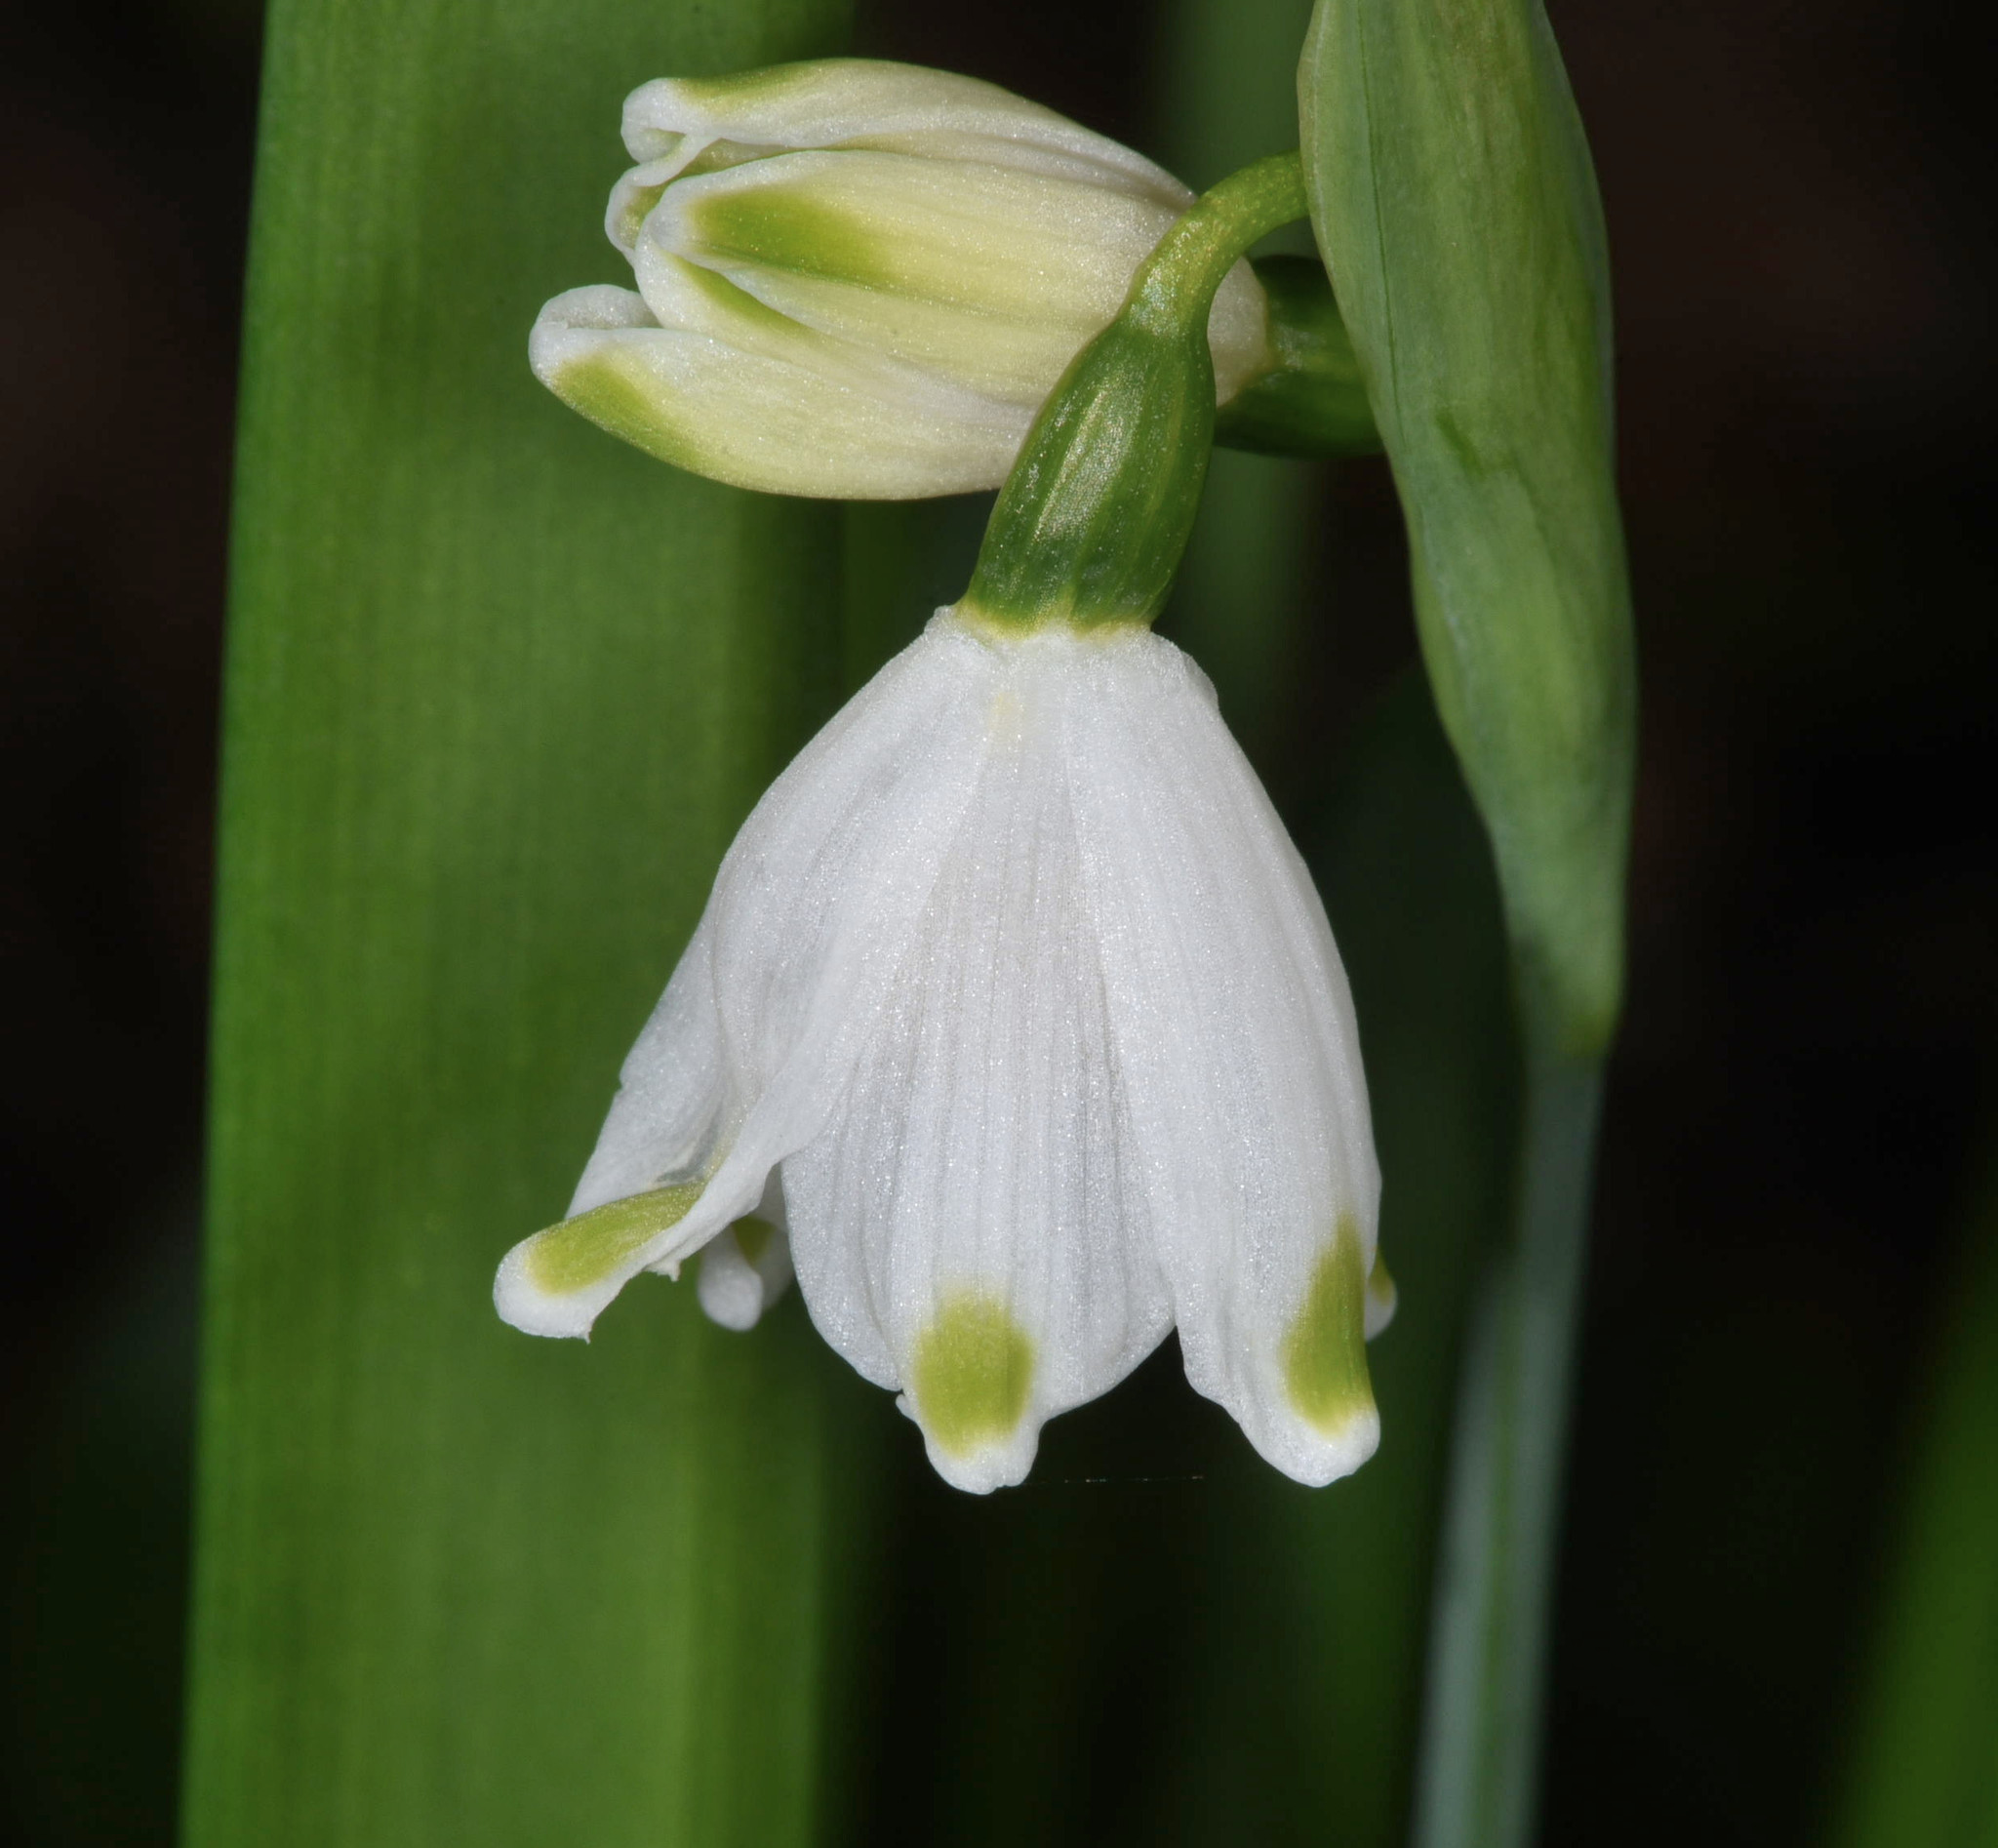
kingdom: Plantae
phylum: Tracheophyta
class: Liliopsida
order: Asparagales
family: Amaryllidaceae
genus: Leucojum
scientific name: Leucojum aestivum
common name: Summer snowflake
